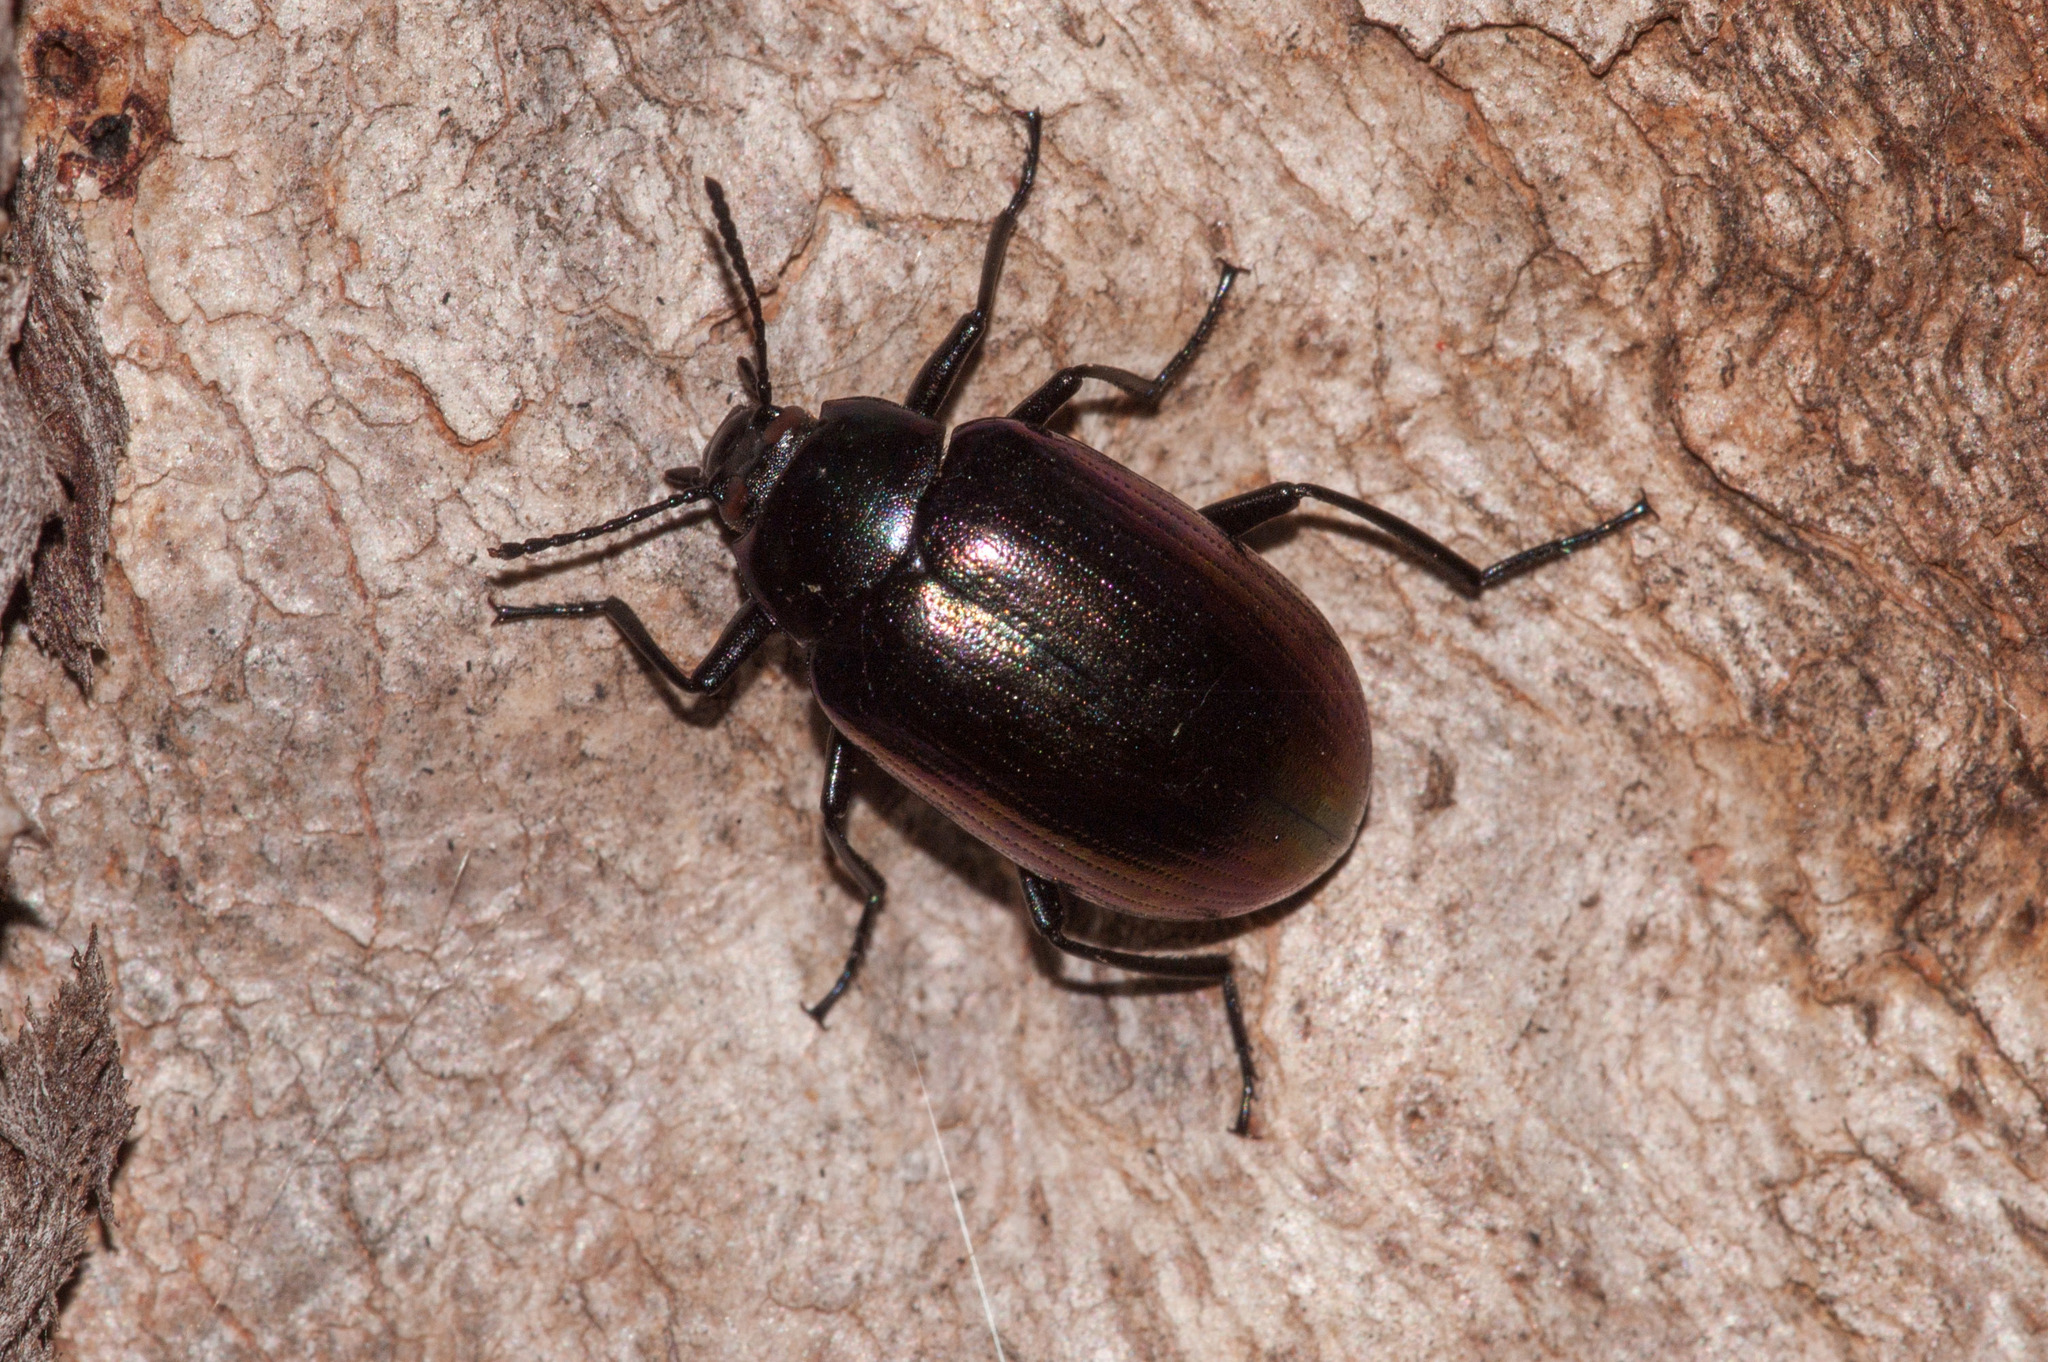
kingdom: Animalia
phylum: Arthropoda
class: Insecta
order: Coleoptera
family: Tenebrionidae
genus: Chalcopteroides
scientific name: Chalcopteroides
